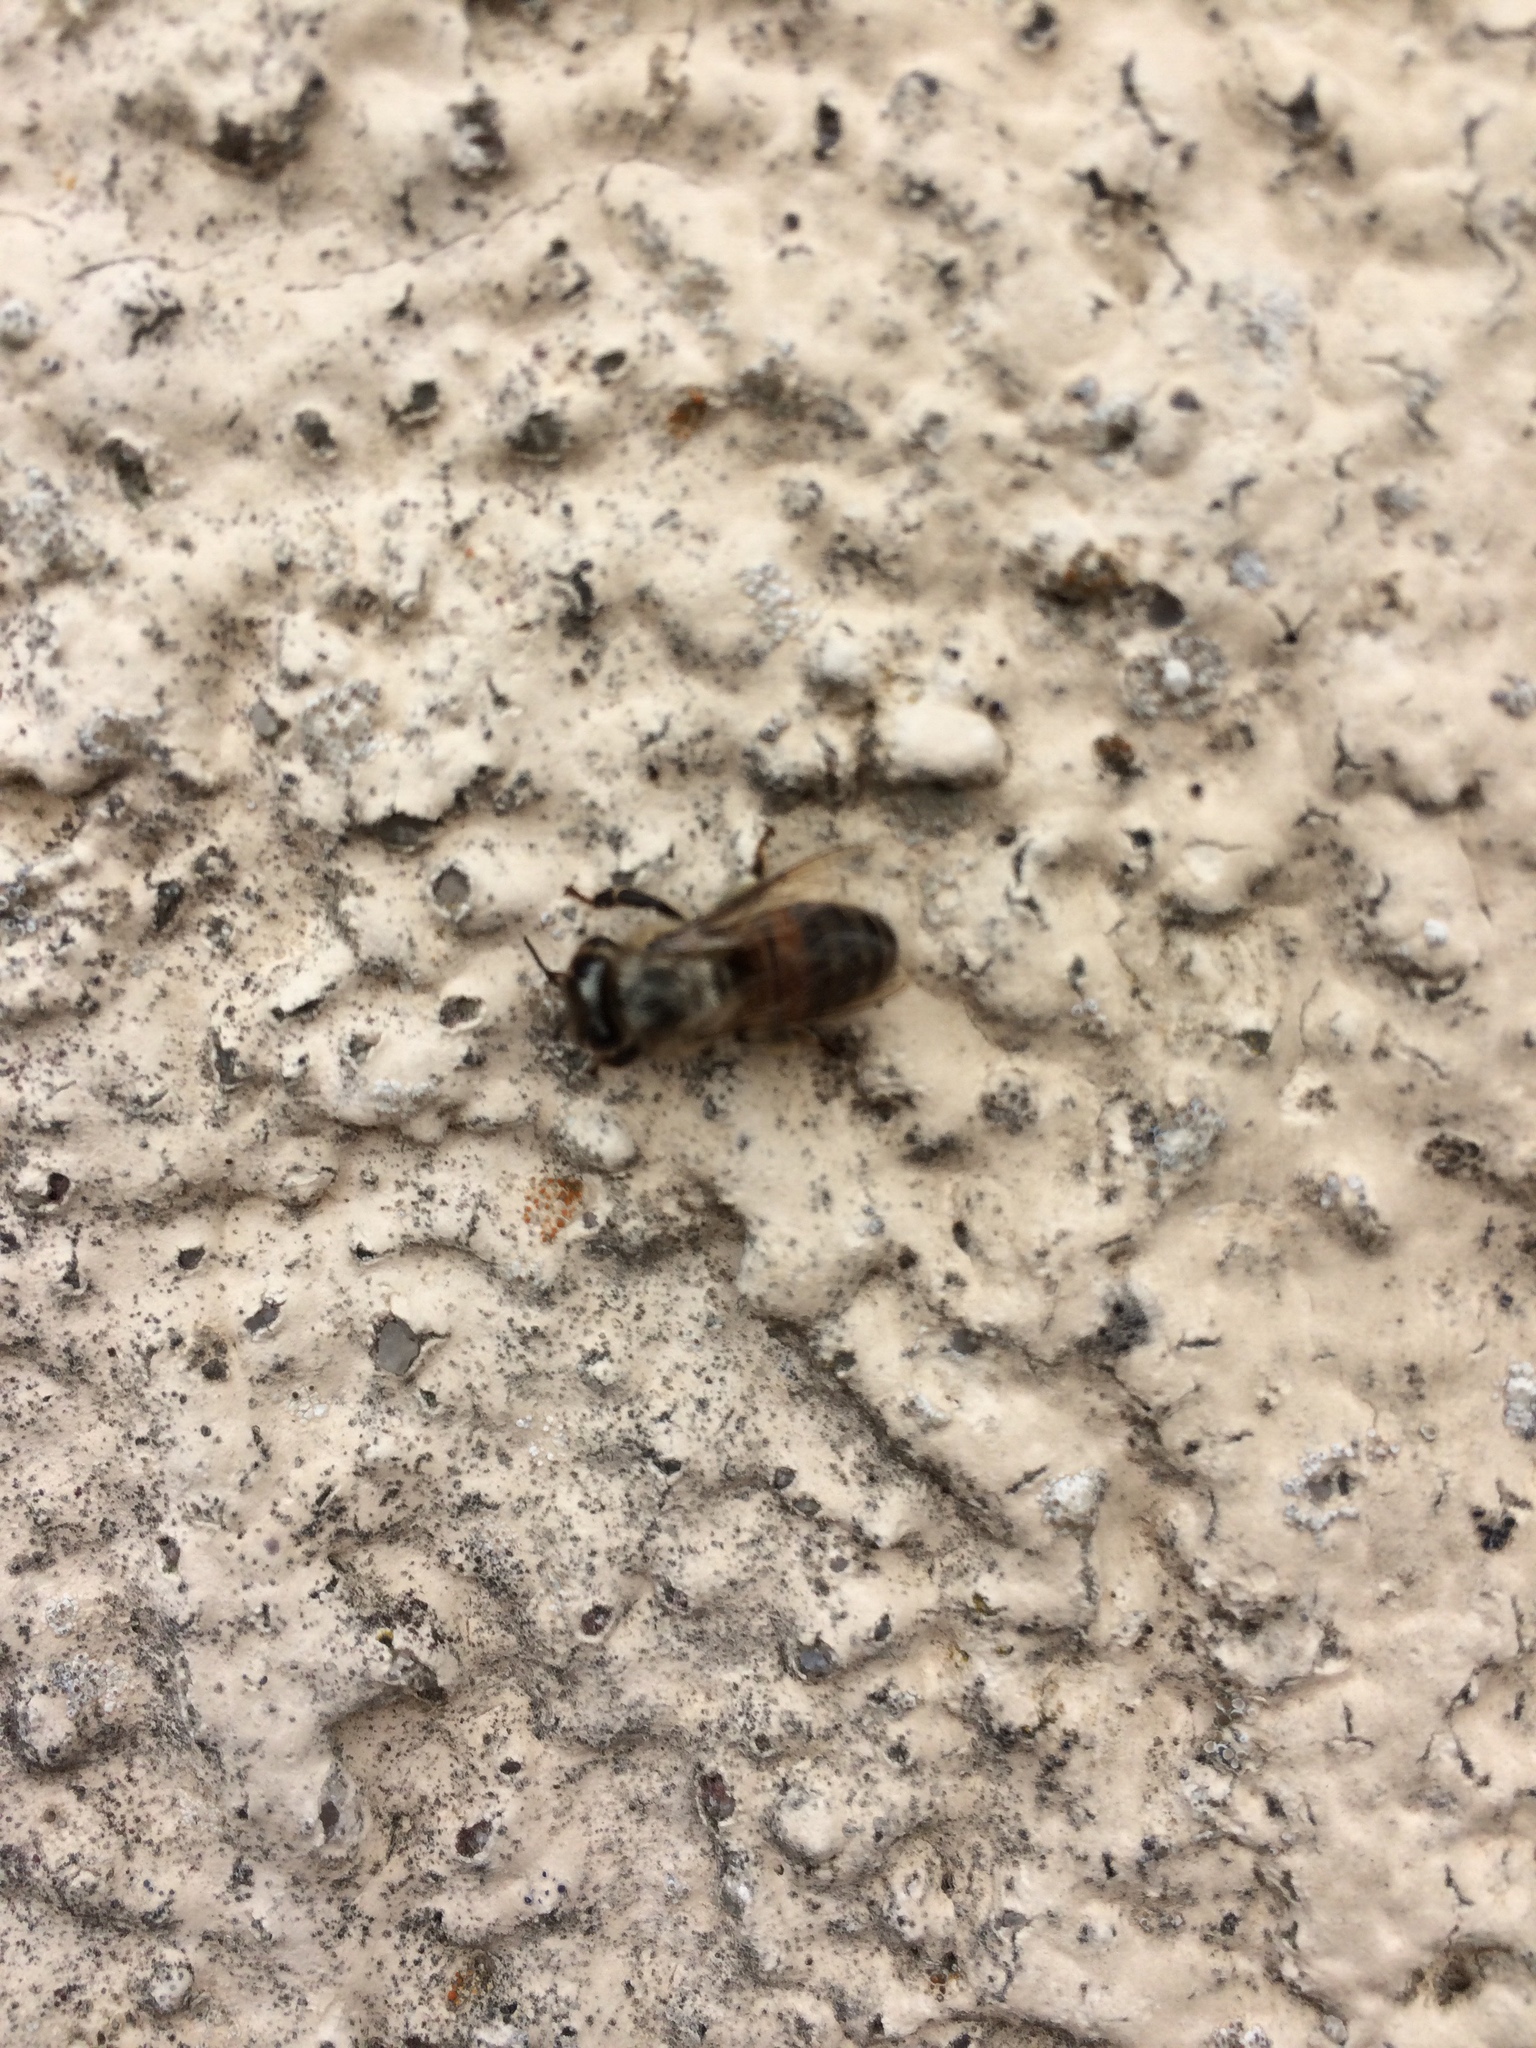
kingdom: Animalia
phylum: Arthropoda
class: Insecta
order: Hymenoptera
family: Apidae
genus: Apis
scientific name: Apis mellifera
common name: Honey bee
